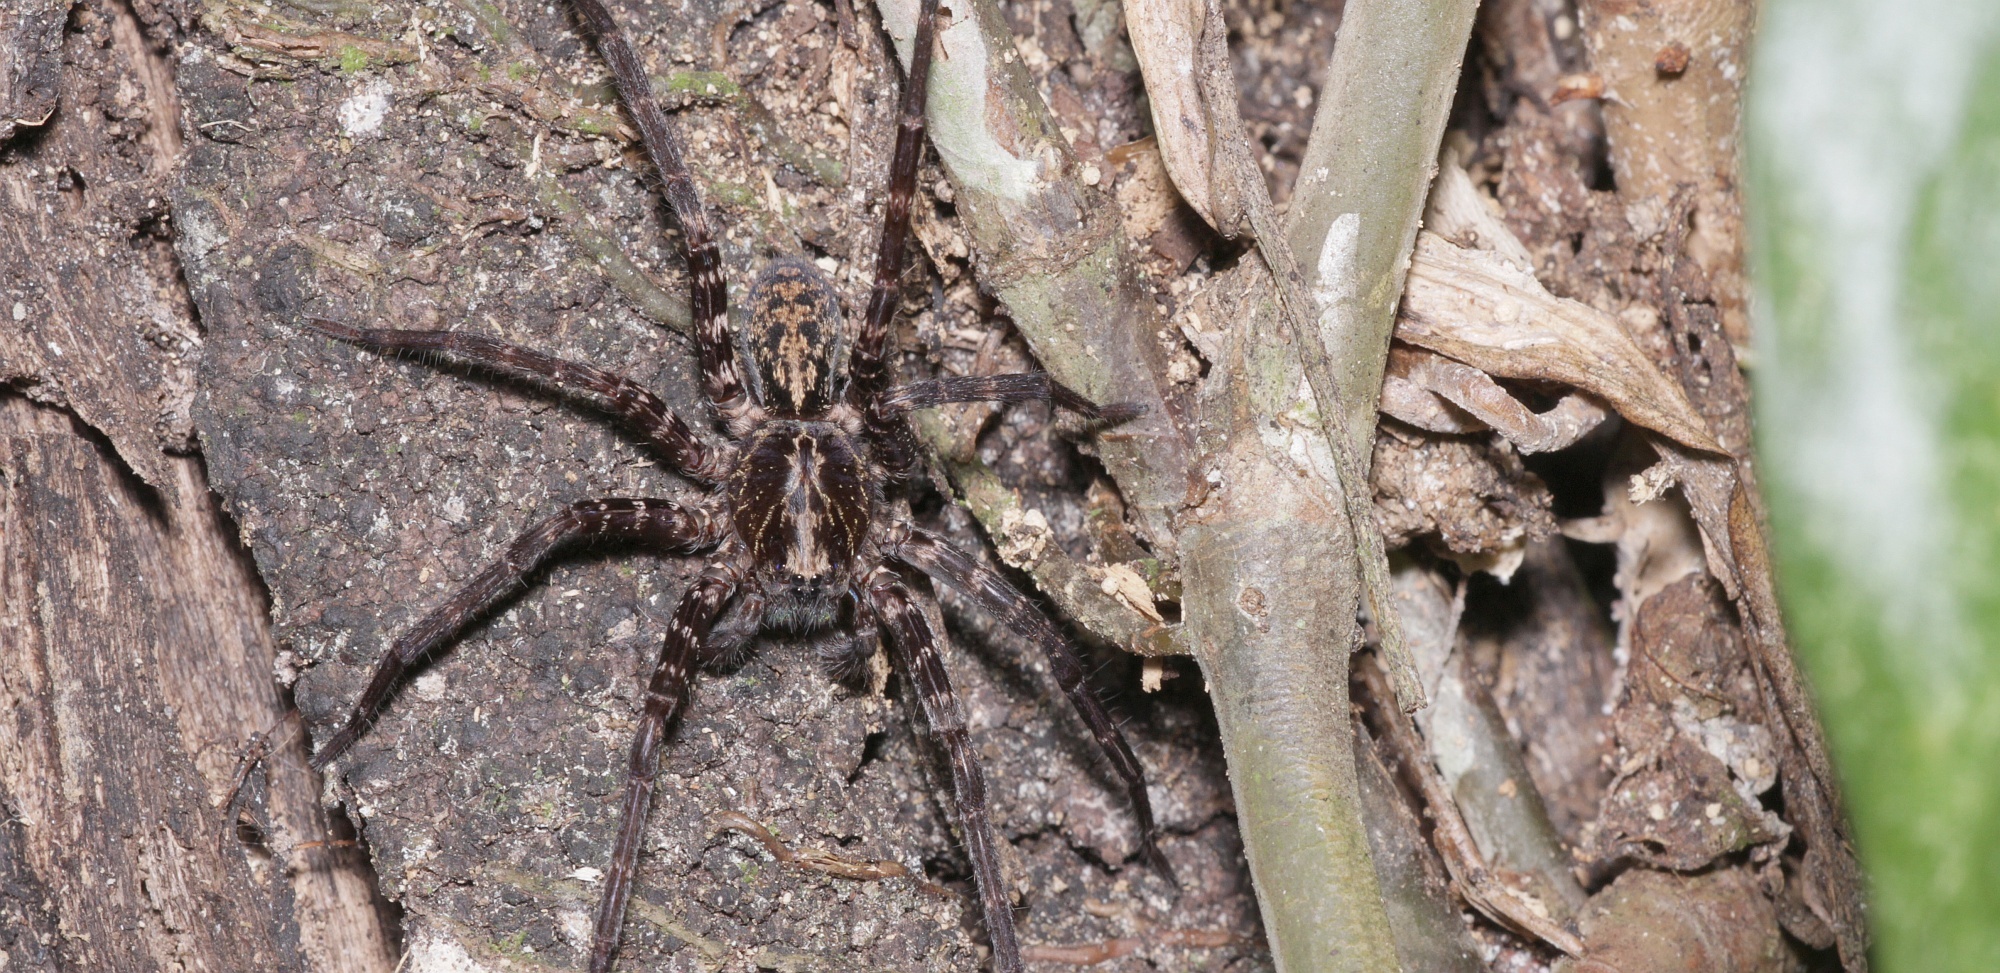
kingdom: Animalia
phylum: Arthropoda
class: Arachnida
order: Araneae
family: Ctenidae
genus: Ctenus
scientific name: Ctenus inaja
